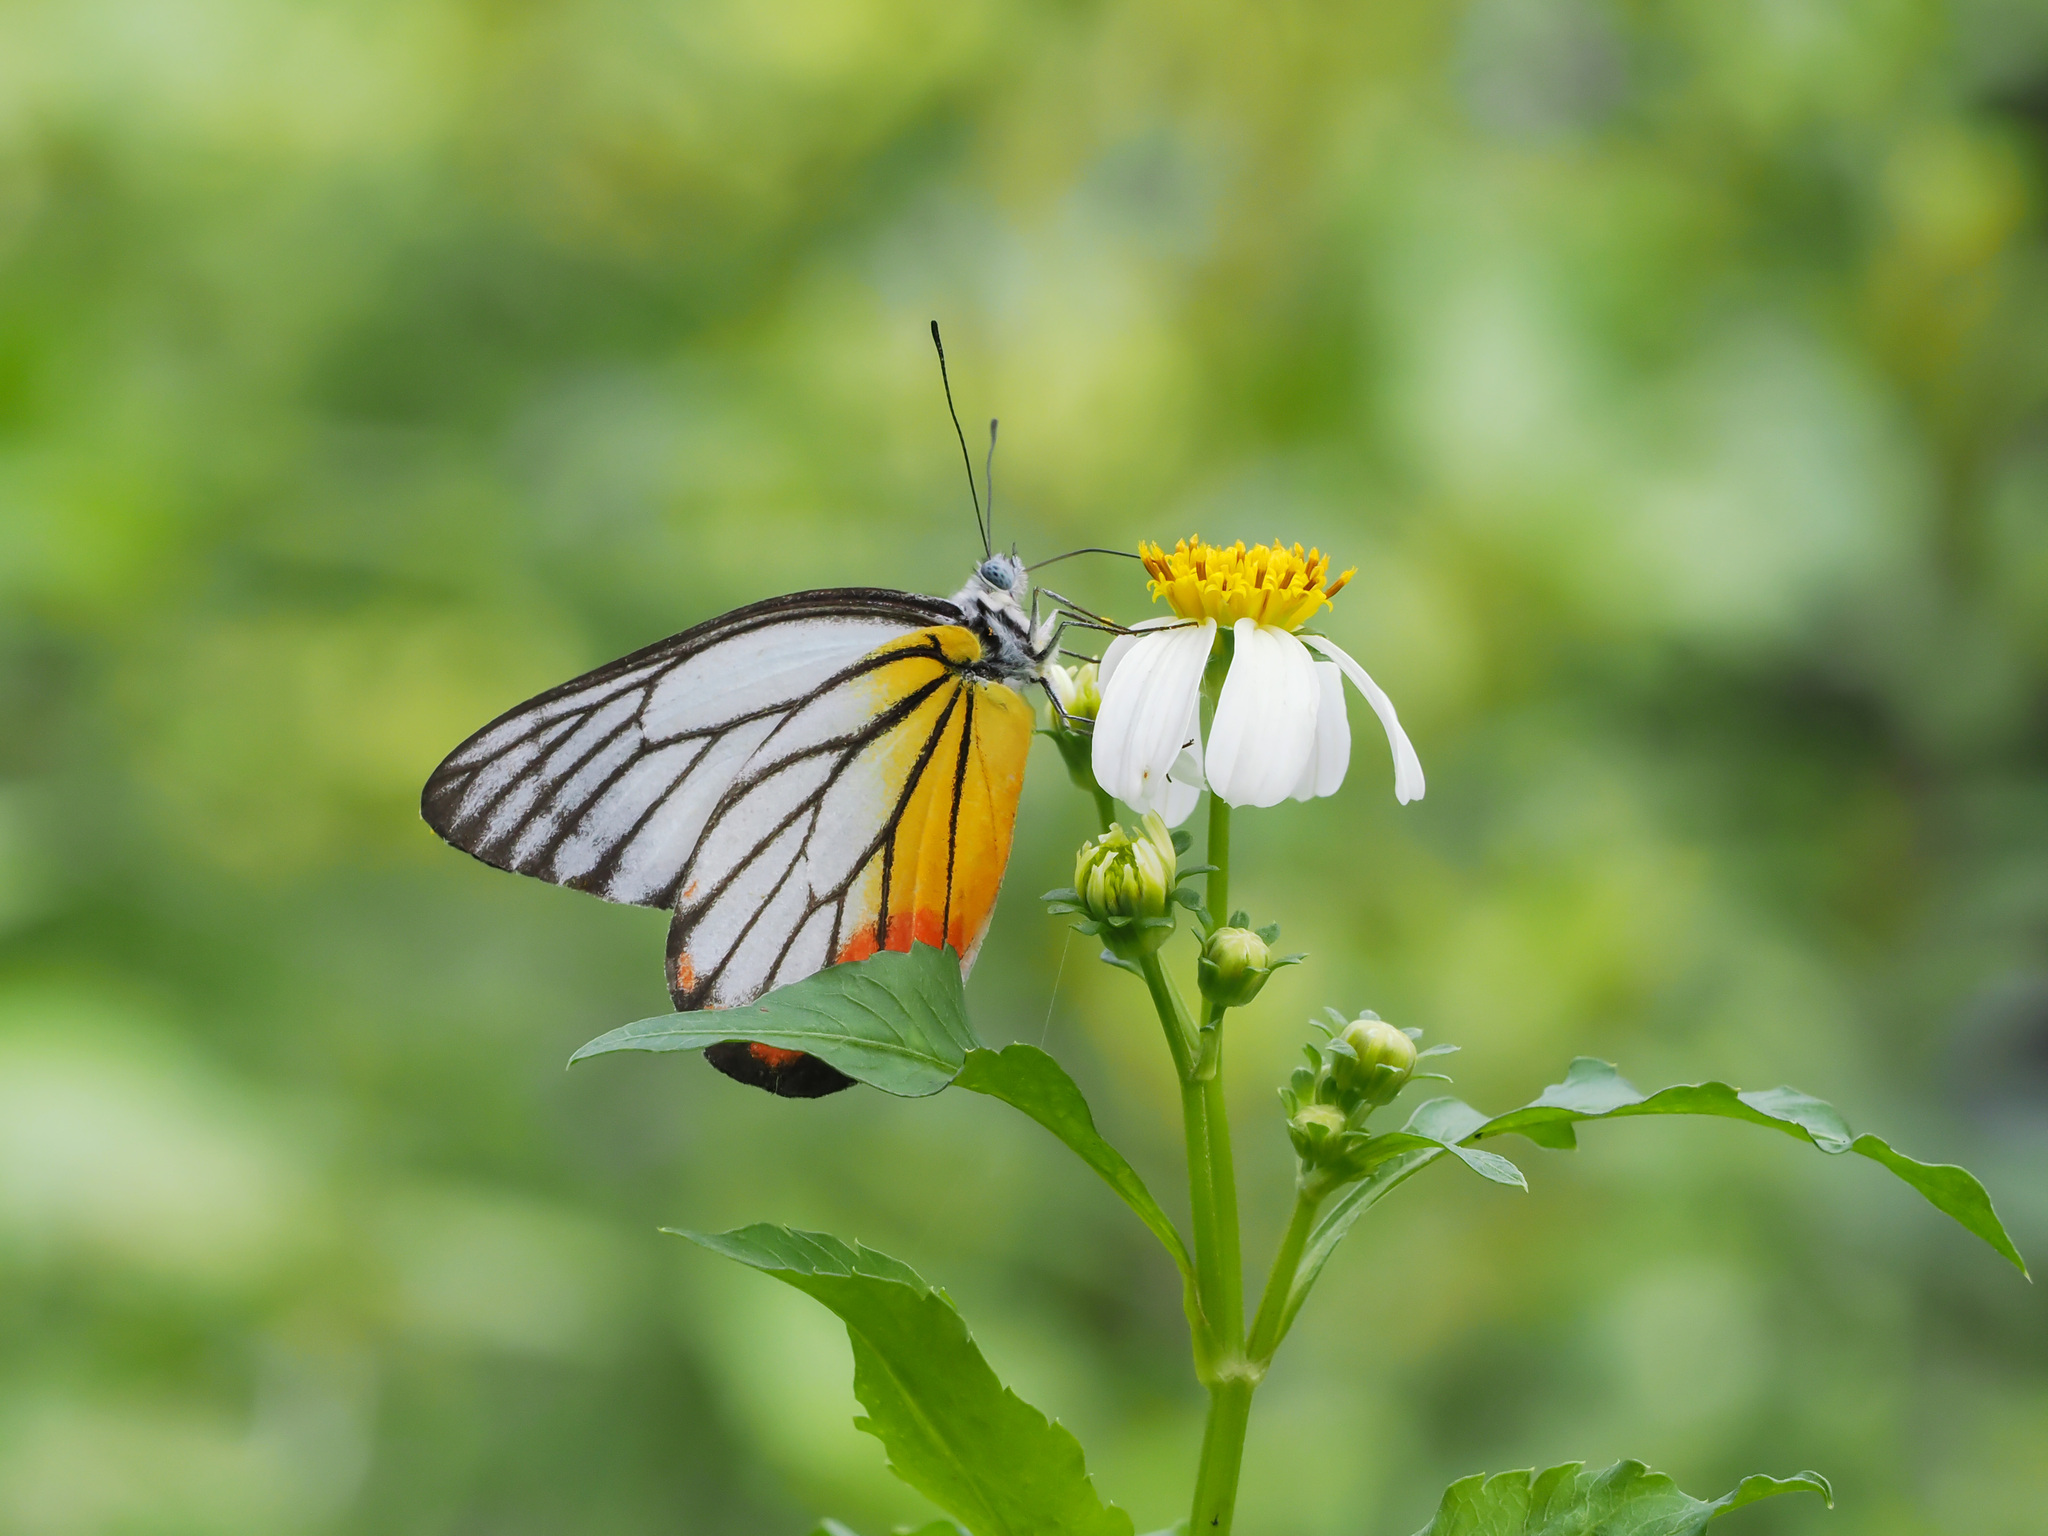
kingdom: Animalia
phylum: Arthropoda
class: Insecta
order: Lepidoptera
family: Pieridae
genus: Delias
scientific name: Delias hyparete
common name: Painted jezebel
